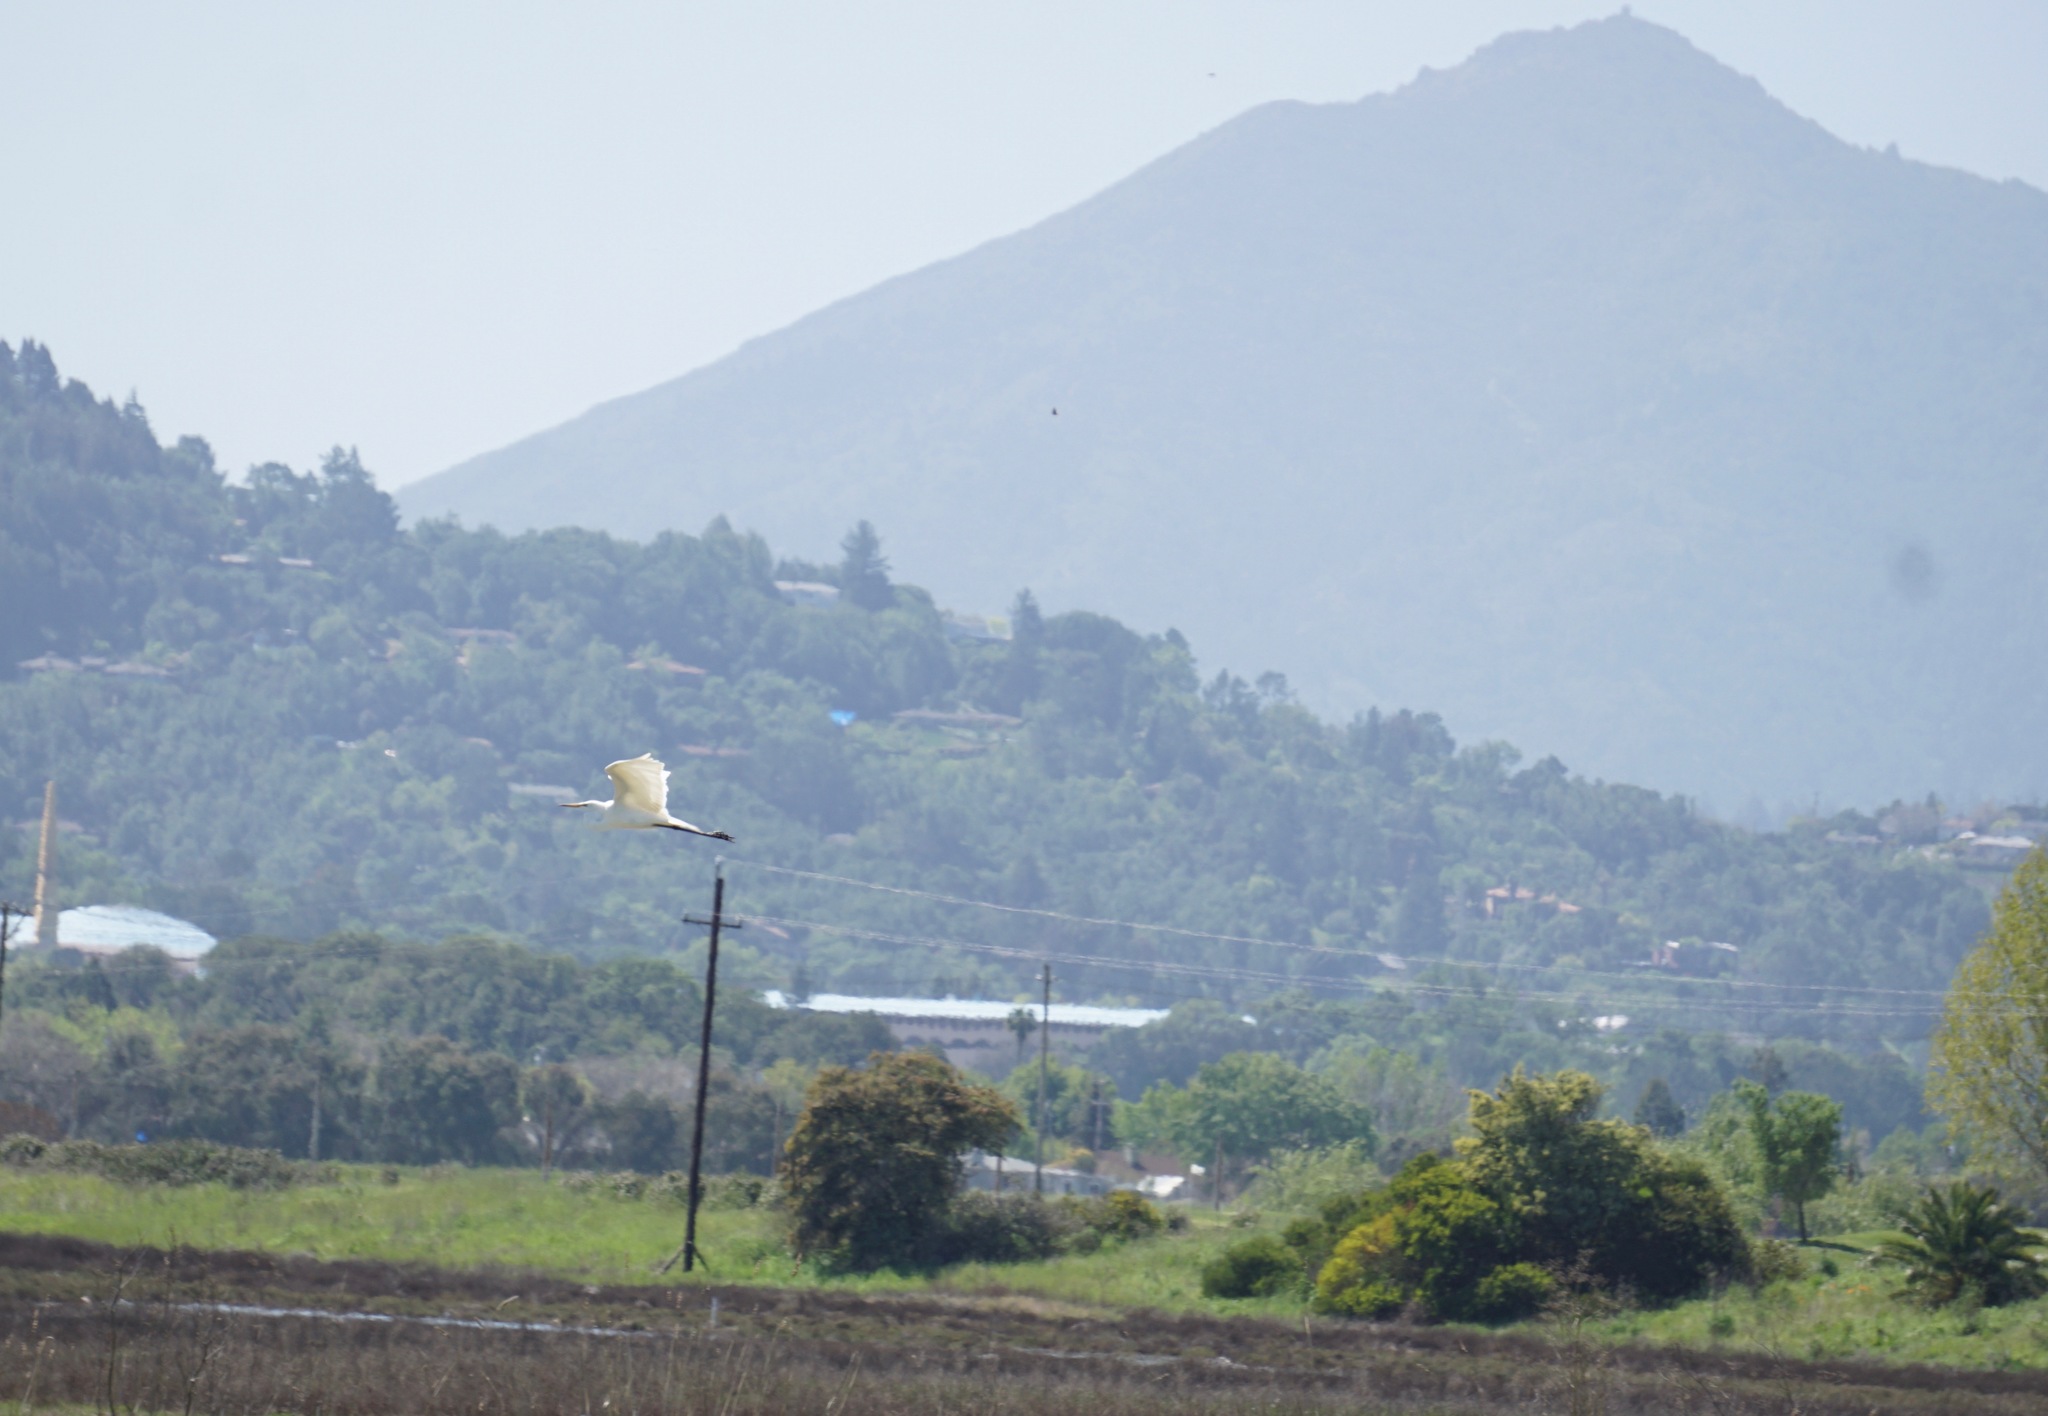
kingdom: Animalia
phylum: Chordata
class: Aves
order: Pelecaniformes
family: Ardeidae
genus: Ardea
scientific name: Ardea alba
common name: Great egret
